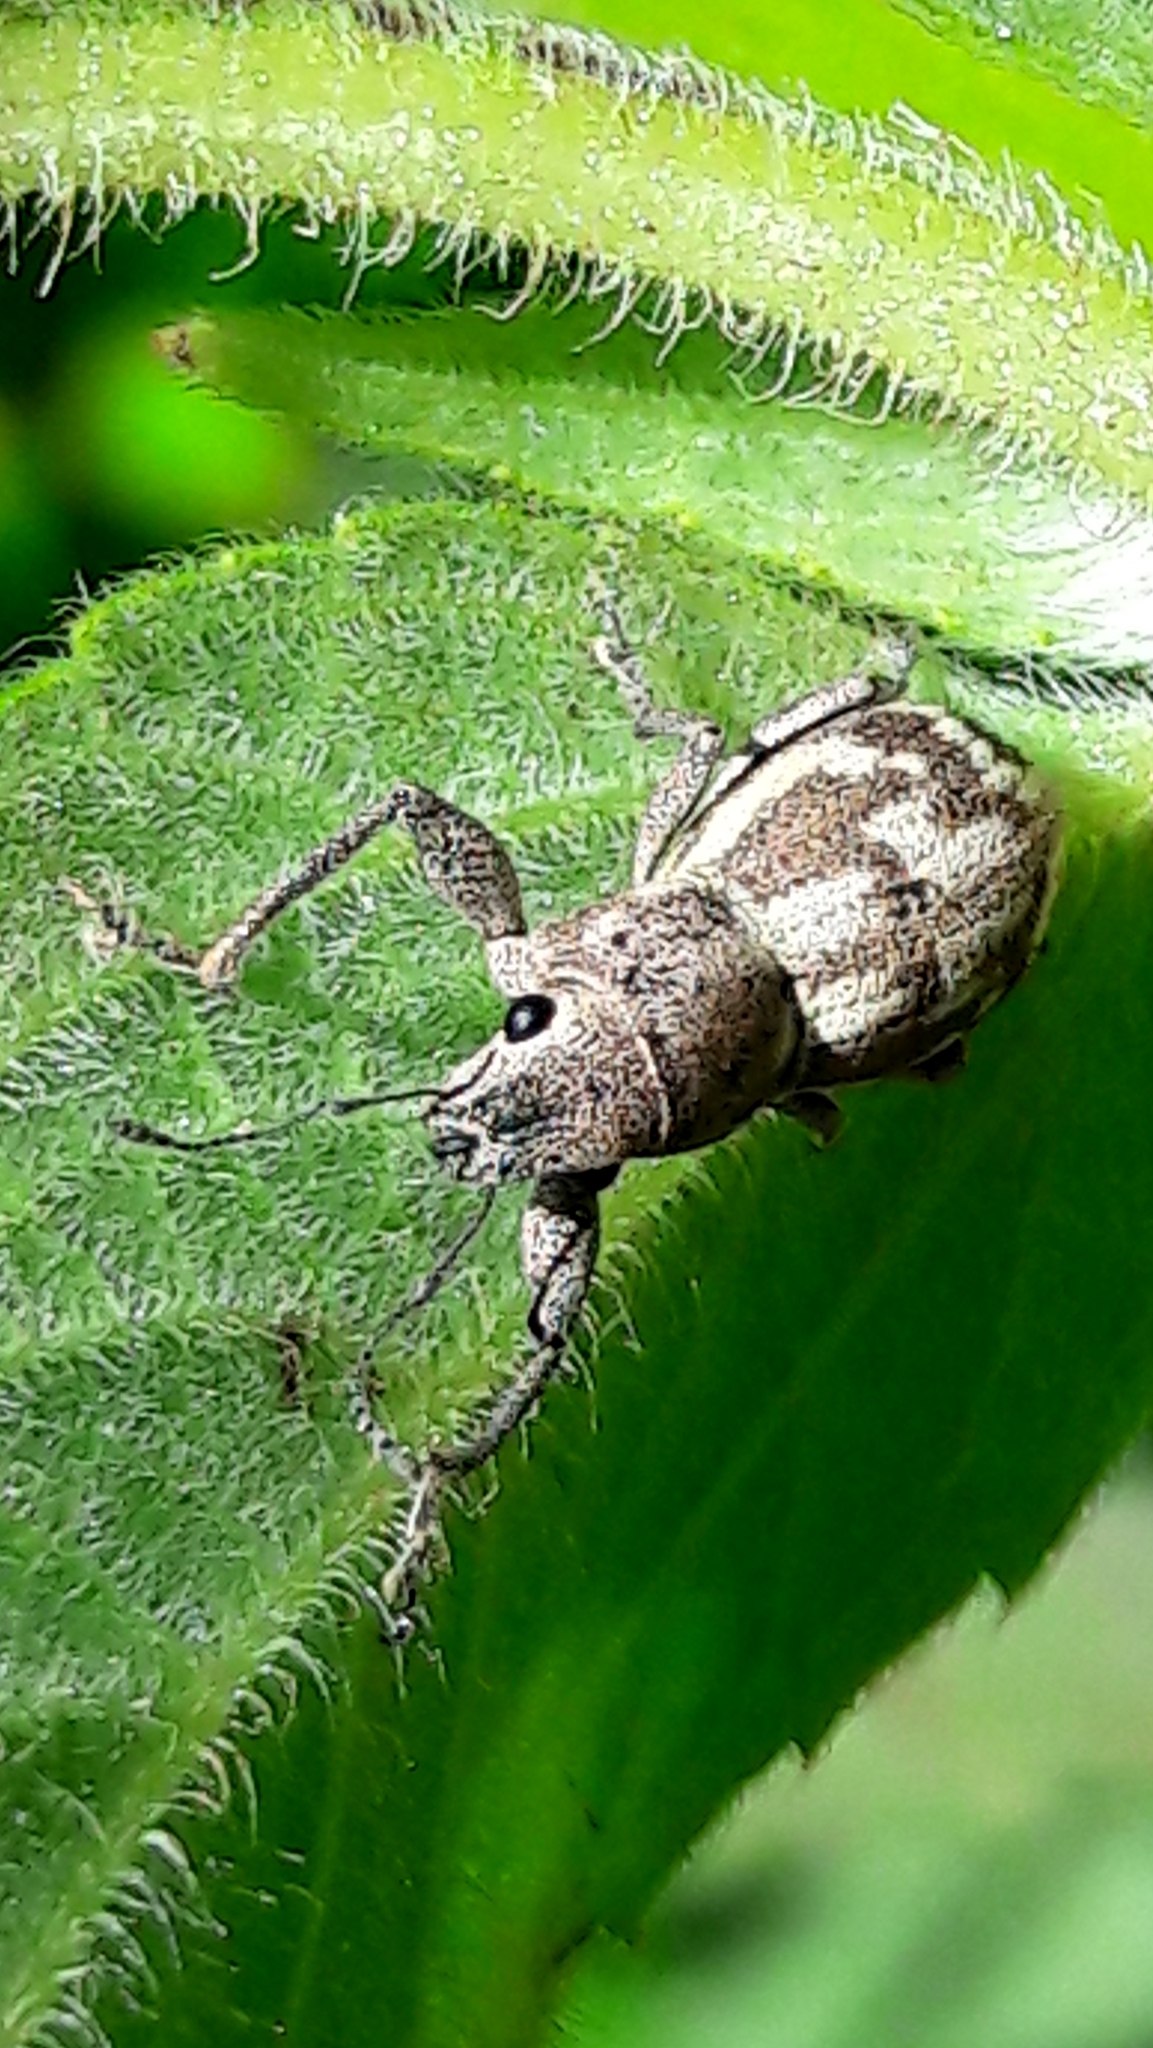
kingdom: Animalia
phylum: Arthropoda
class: Insecta
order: Coleoptera
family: Curculionidae
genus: Parapantomorus
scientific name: Parapantomorus fluctuosus
